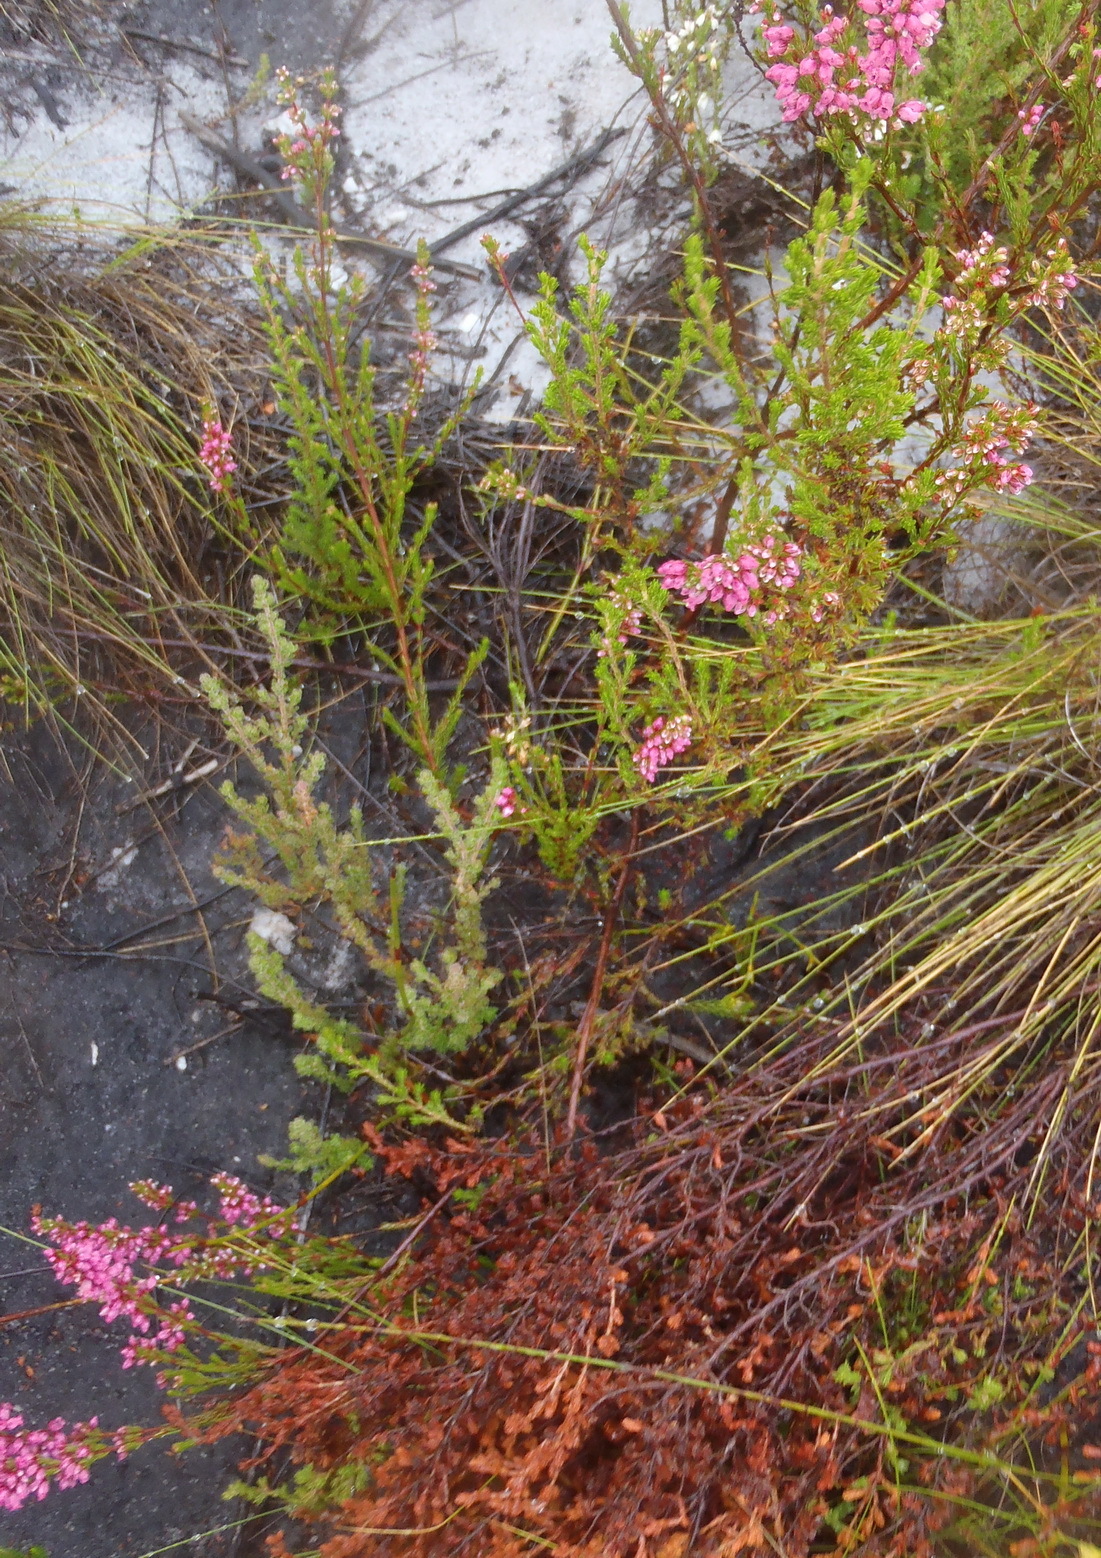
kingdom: Plantae
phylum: Tracheophyta
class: Magnoliopsida
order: Ericales
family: Ericaceae
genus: Erica
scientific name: Erica tenella
